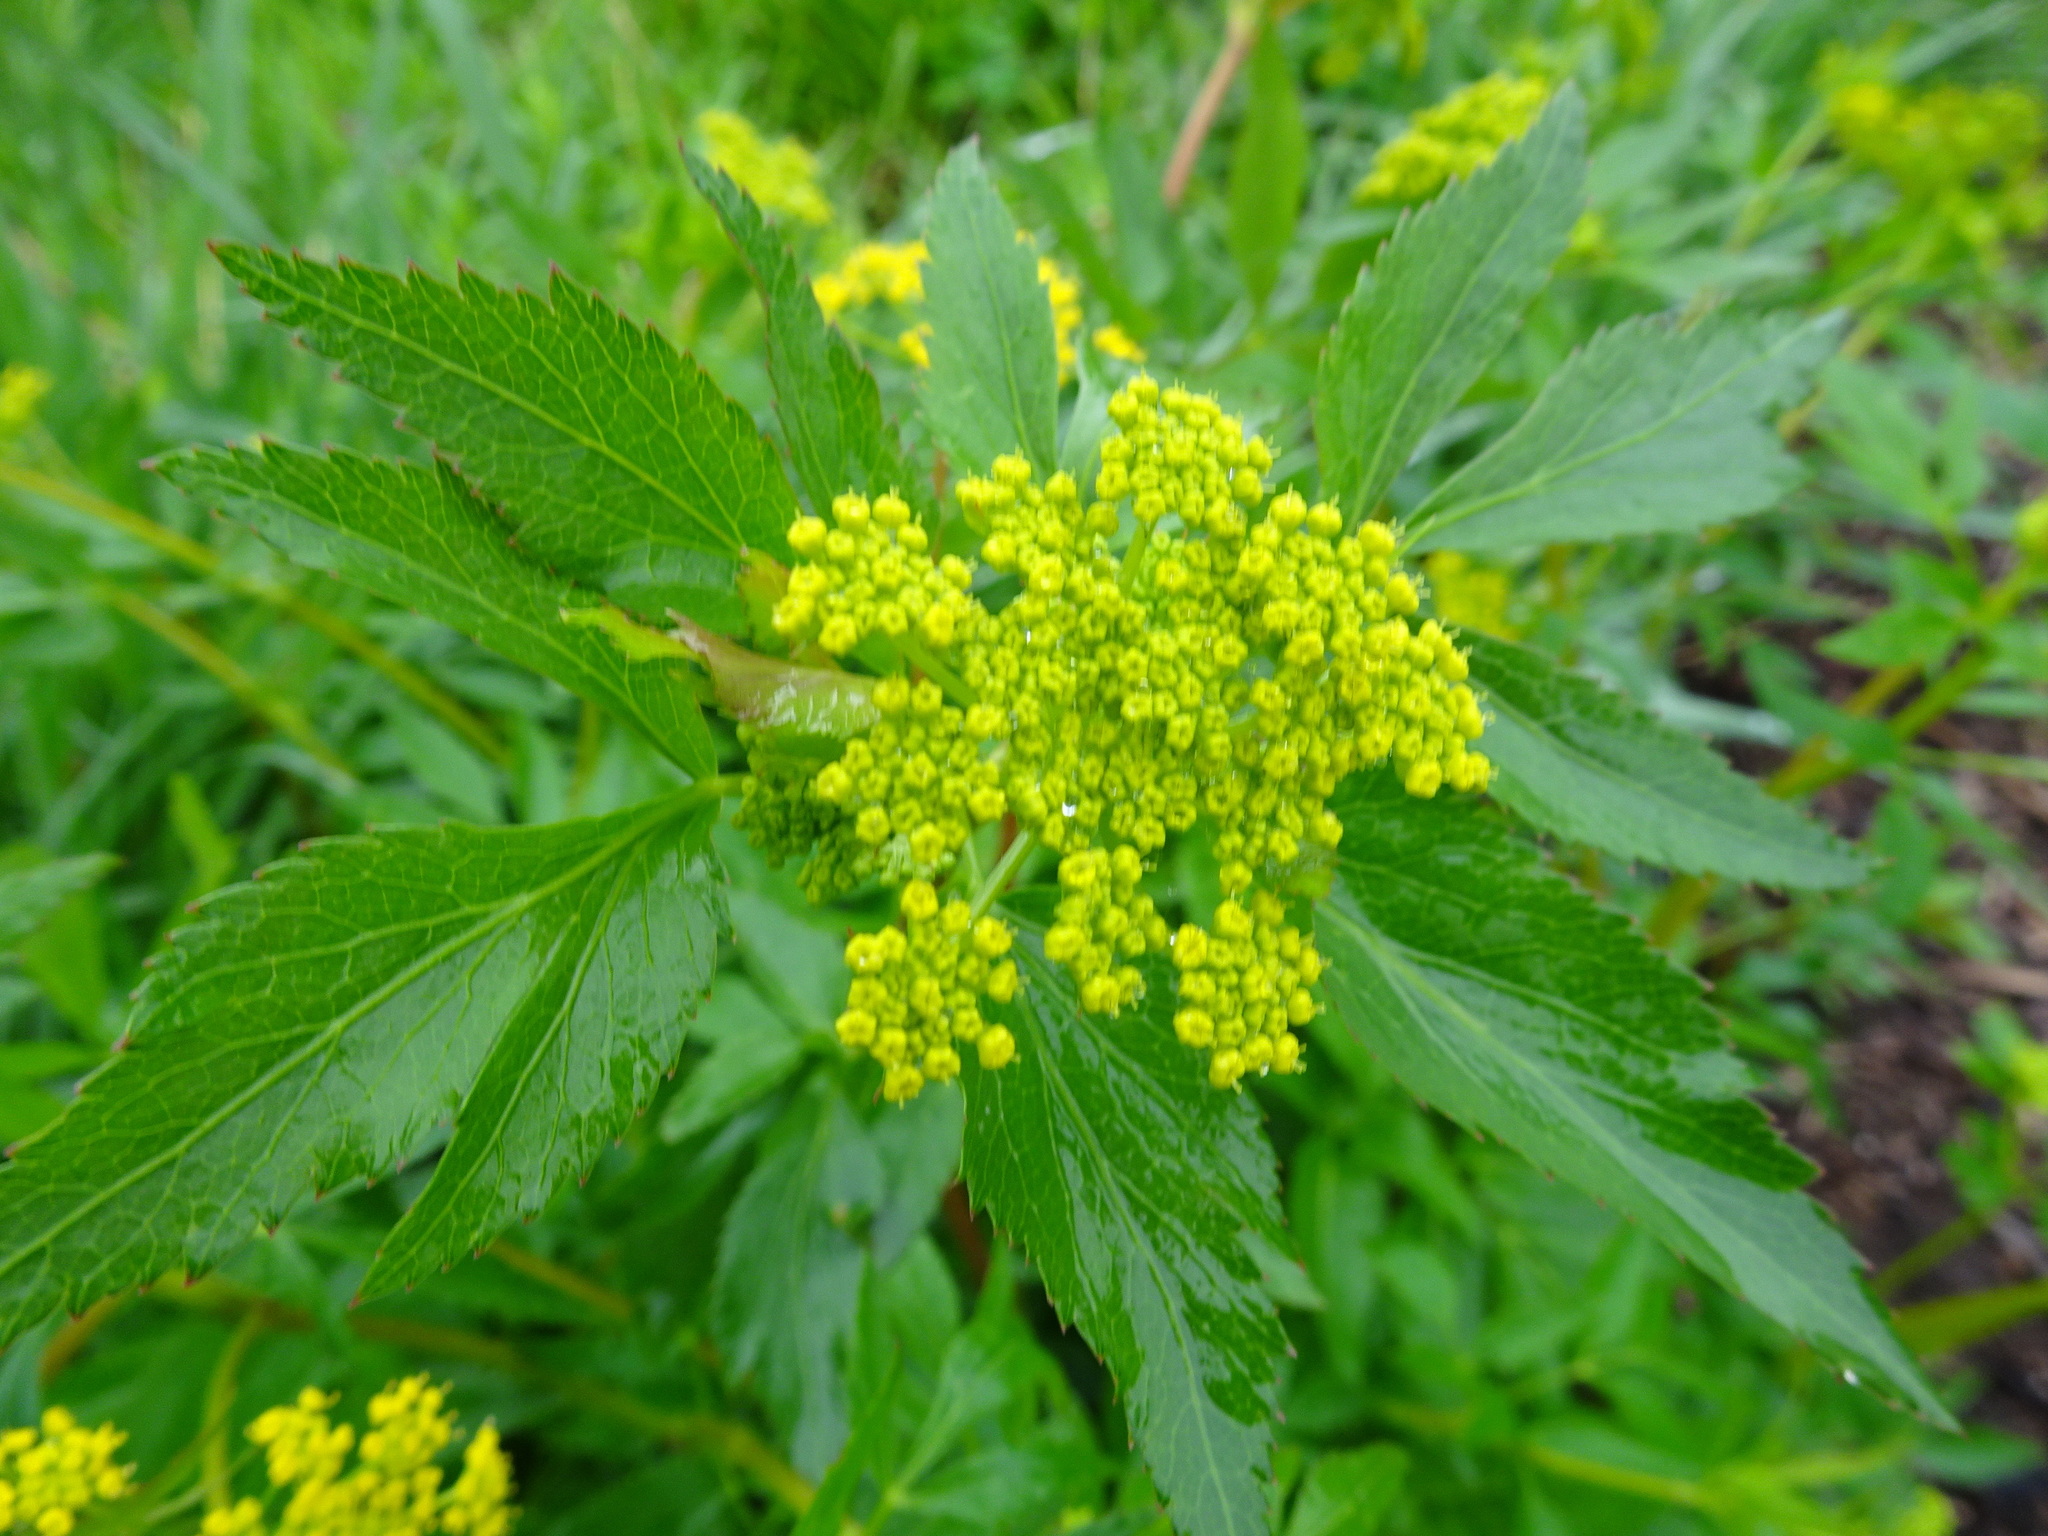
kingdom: Plantae
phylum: Tracheophyta
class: Magnoliopsida
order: Apiales
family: Apiaceae
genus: Zizia
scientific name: Zizia aurea
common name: Golden alexanders
